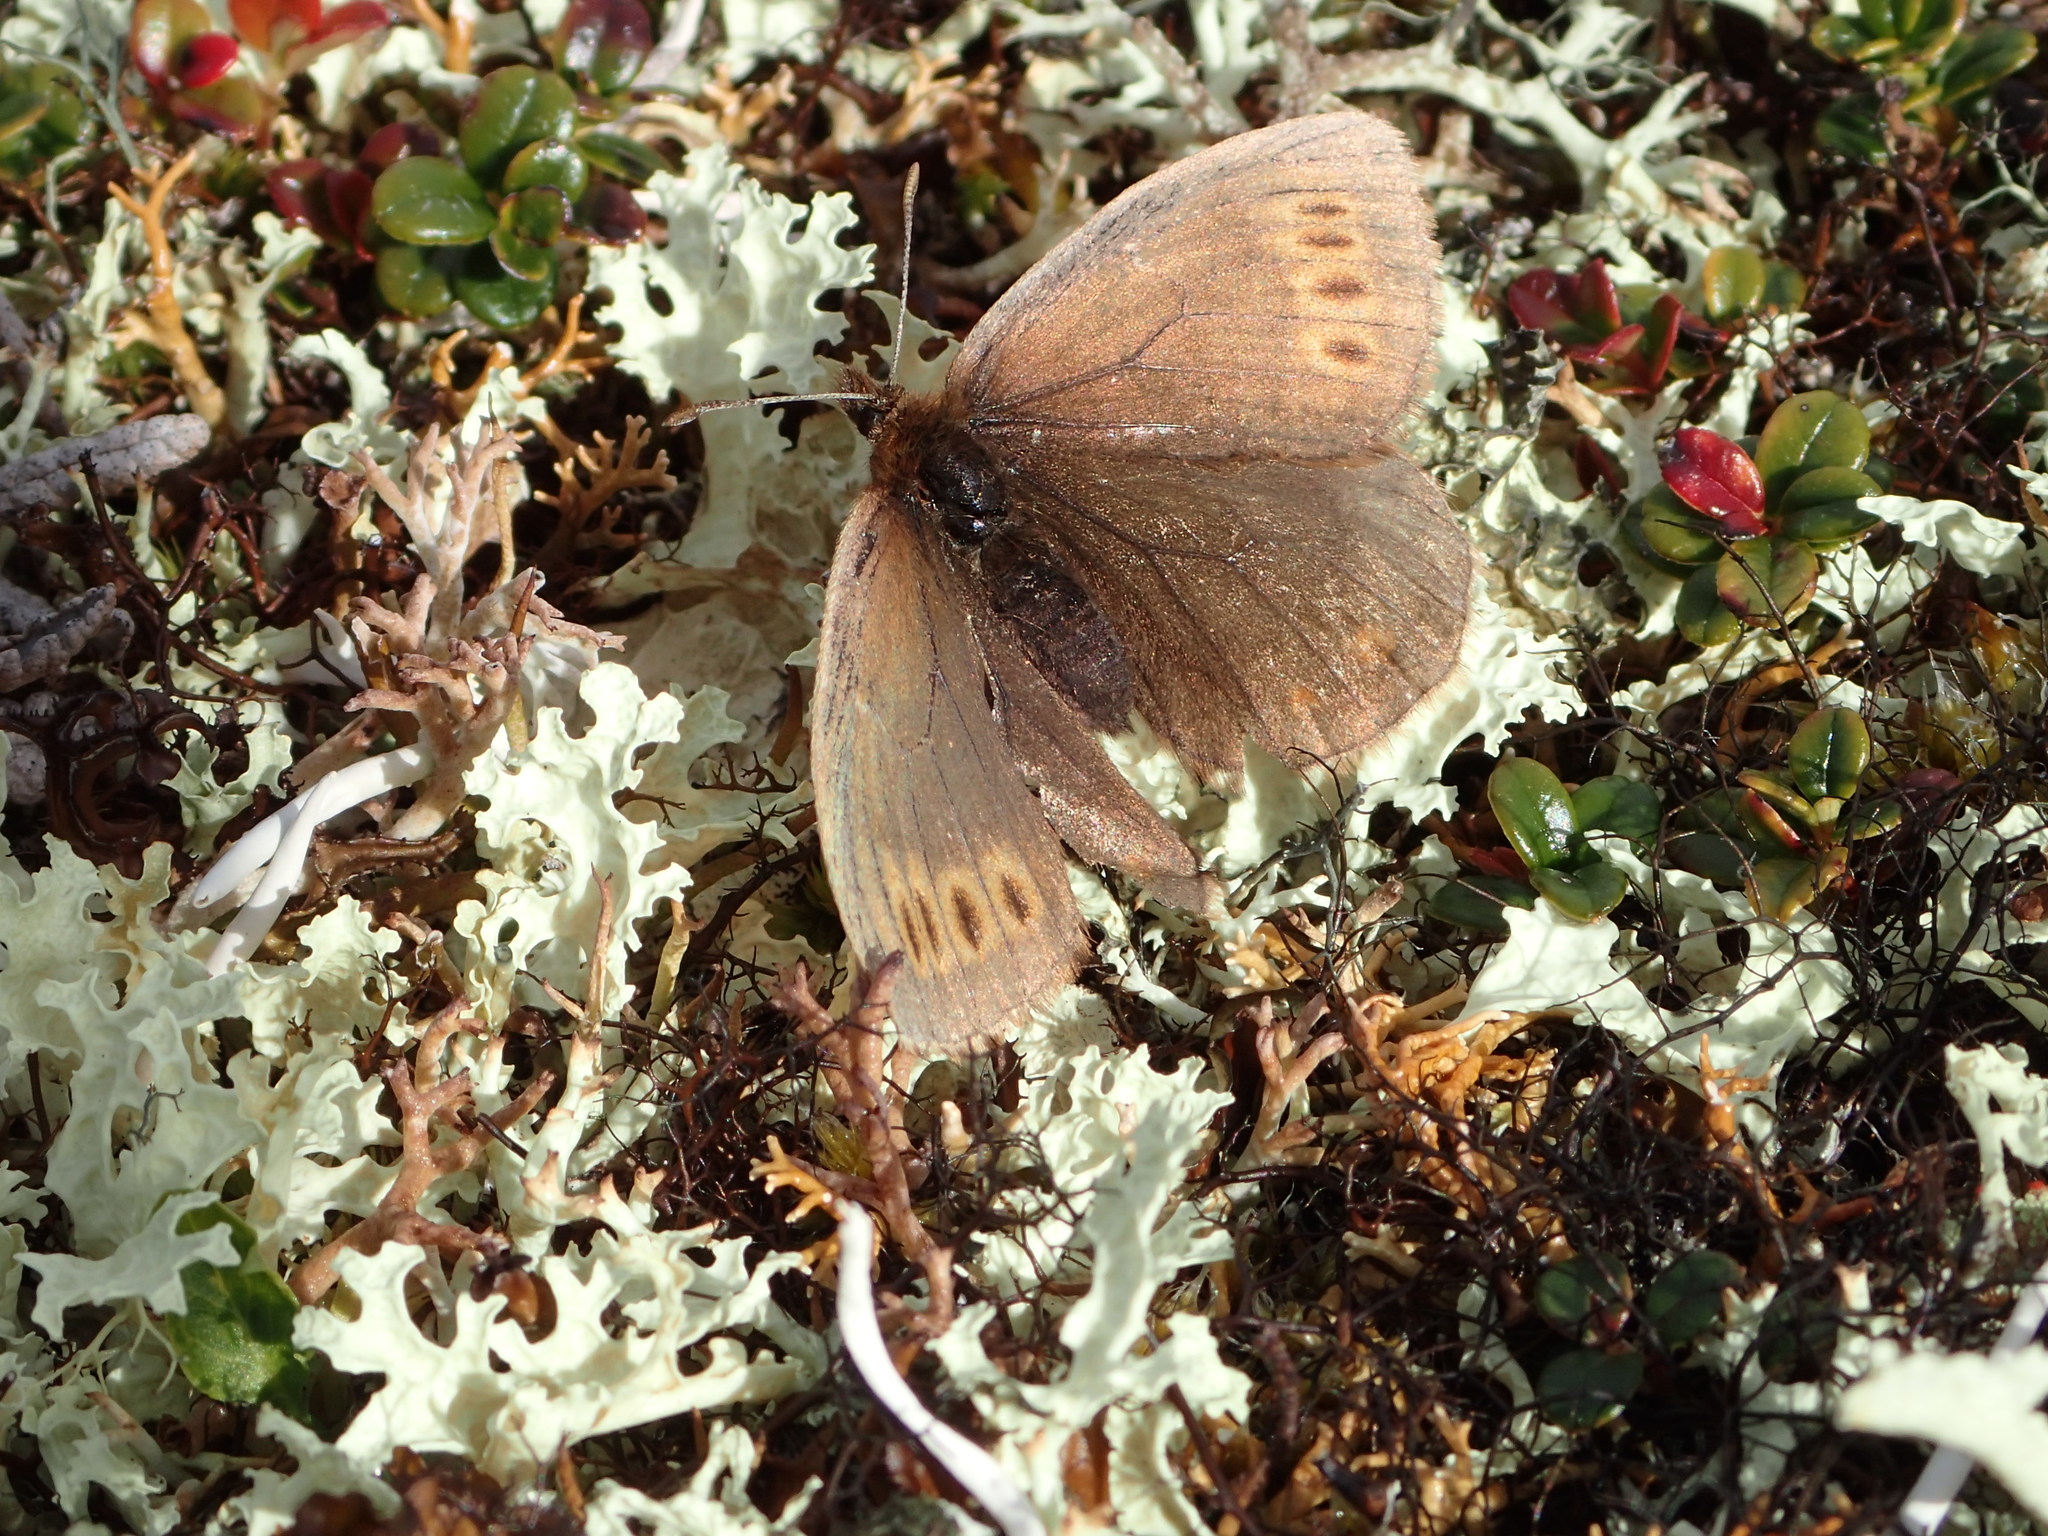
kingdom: Animalia
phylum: Arthropoda
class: Insecta
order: Lepidoptera
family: Nymphalidae
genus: Erebia
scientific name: Erebia youngi
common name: Four-dotted alpine
